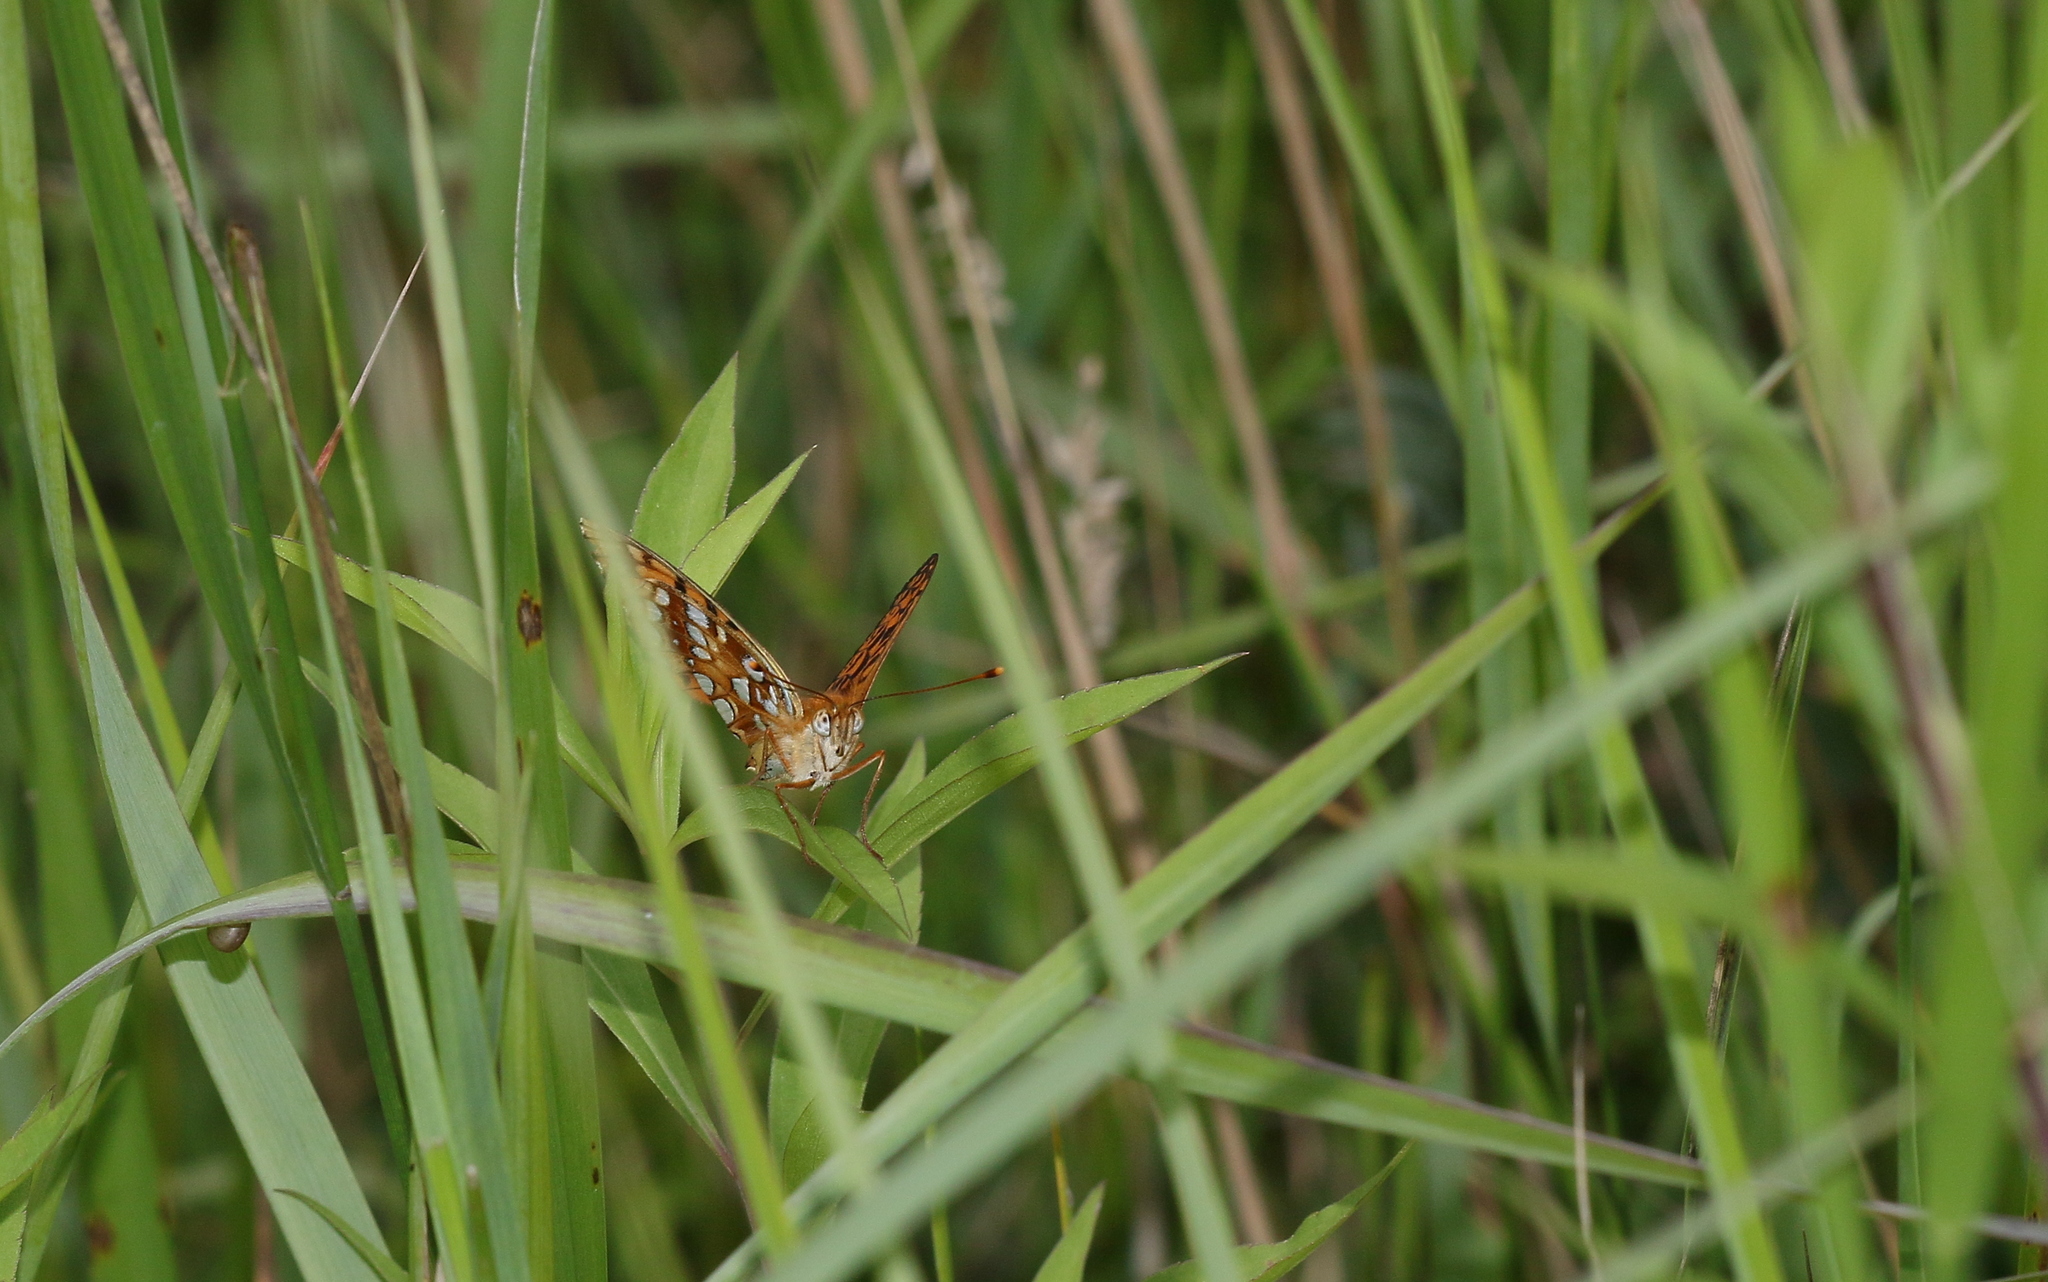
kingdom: Animalia
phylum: Arthropoda
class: Insecta
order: Lepidoptera
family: Nymphalidae
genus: Fabriciana
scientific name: Fabriciana adippe
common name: High brown fritillary
